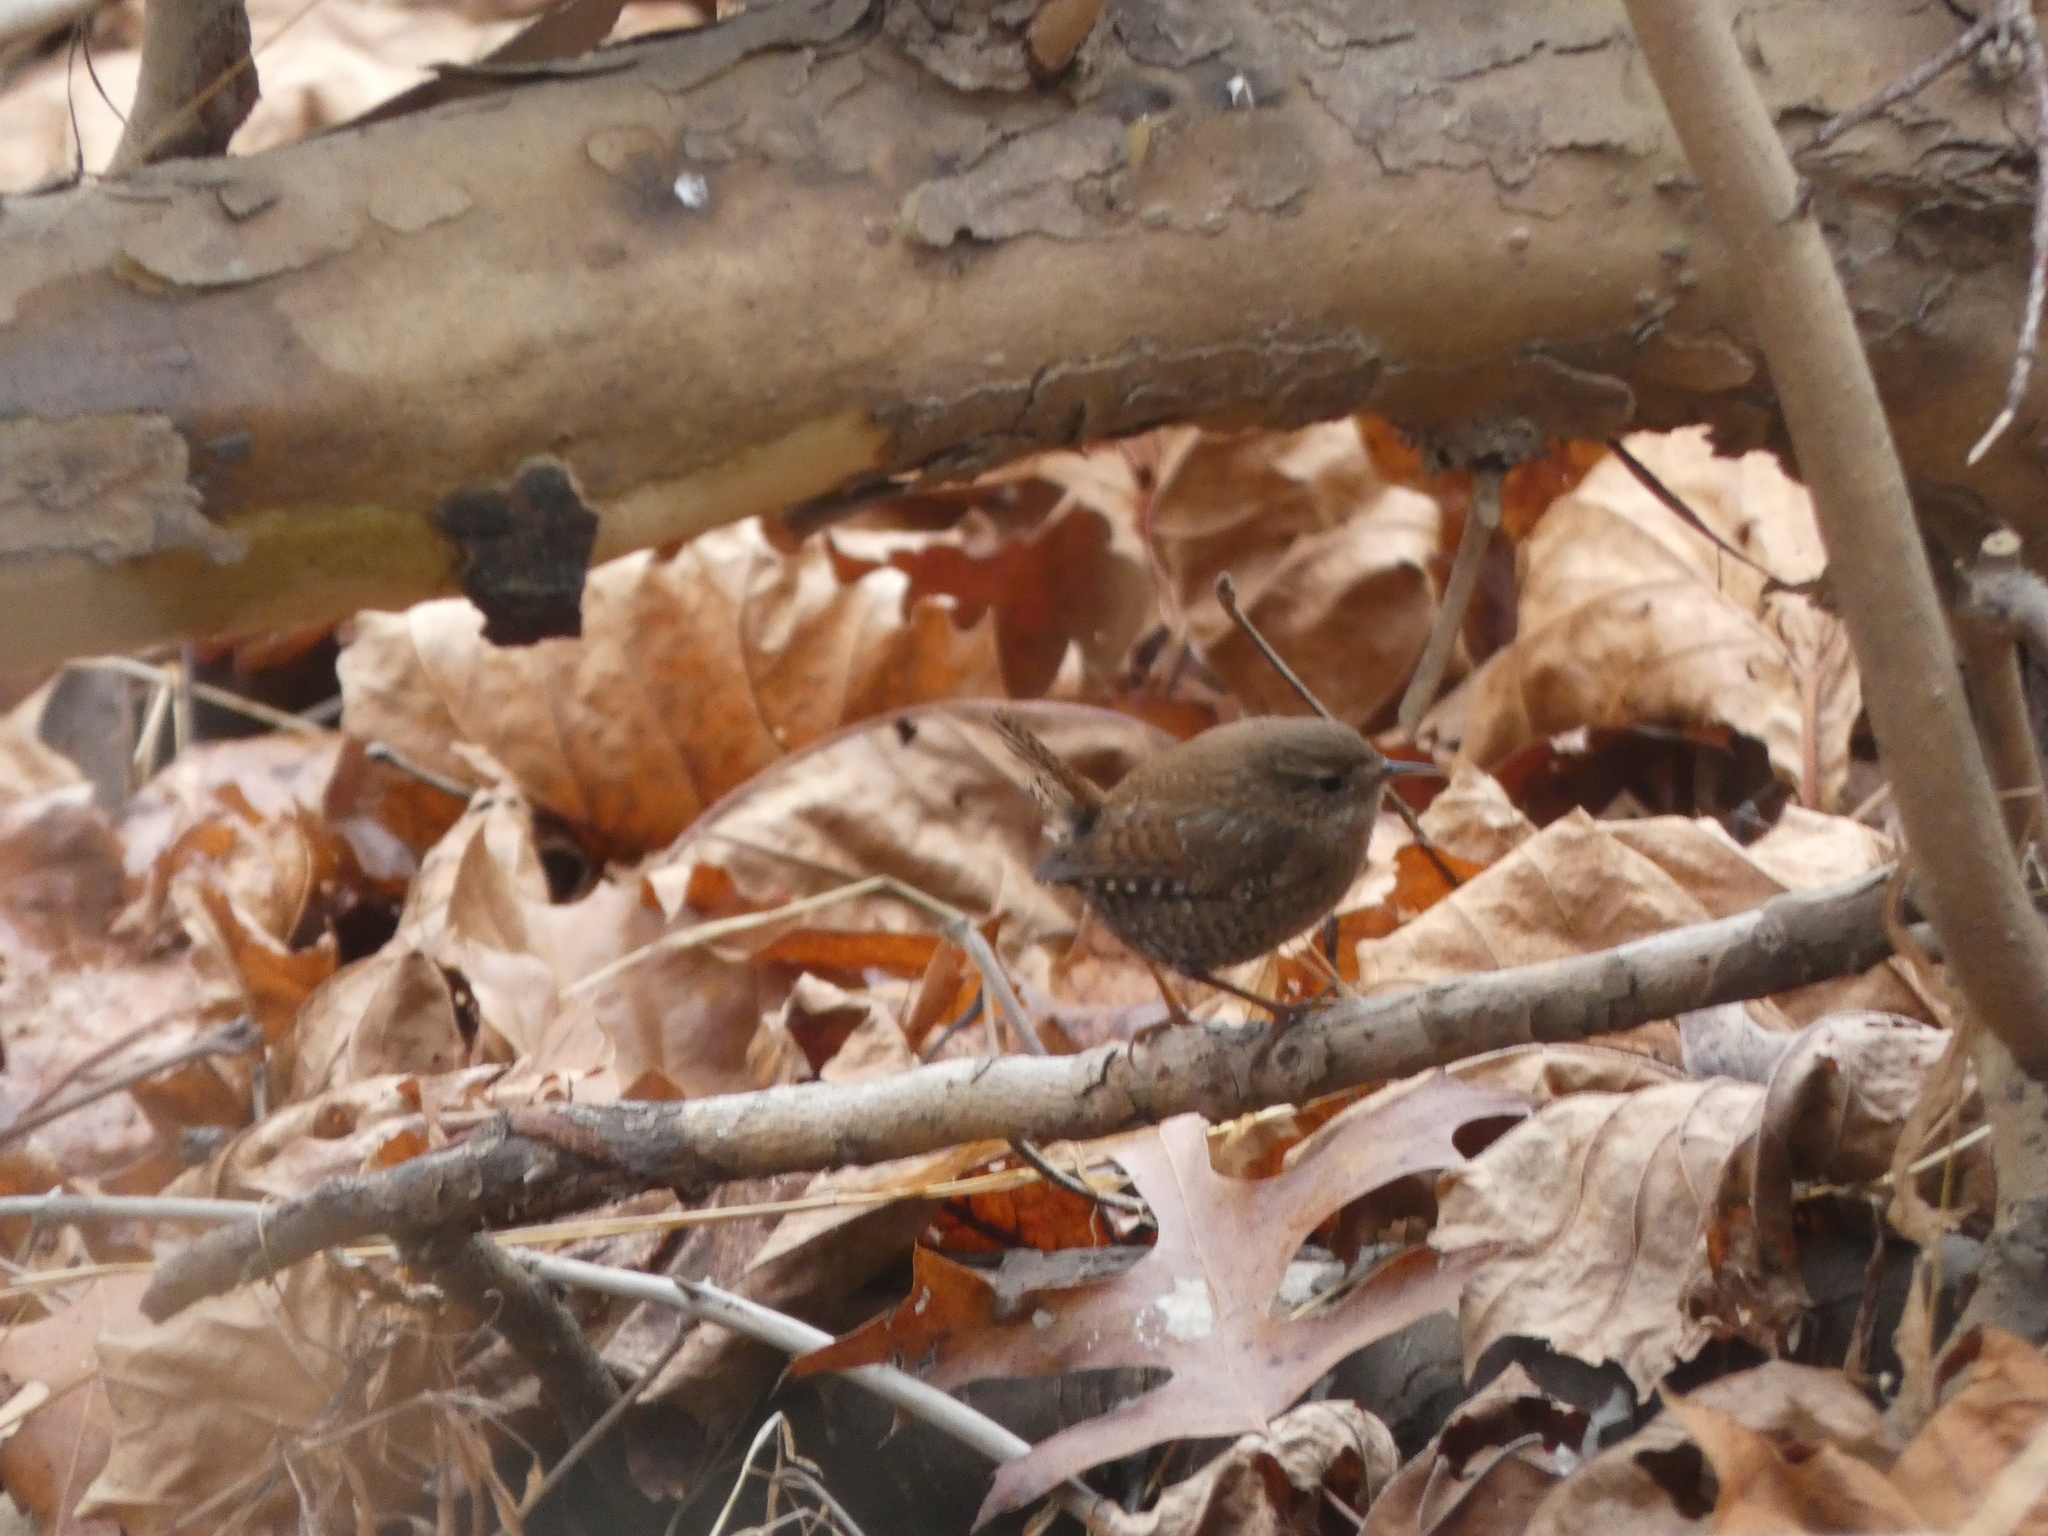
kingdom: Animalia
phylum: Chordata
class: Aves
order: Passeriformes
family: Troglodytidae
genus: Troglodytes
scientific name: Troglodytes hiemalis
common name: Winter wren
